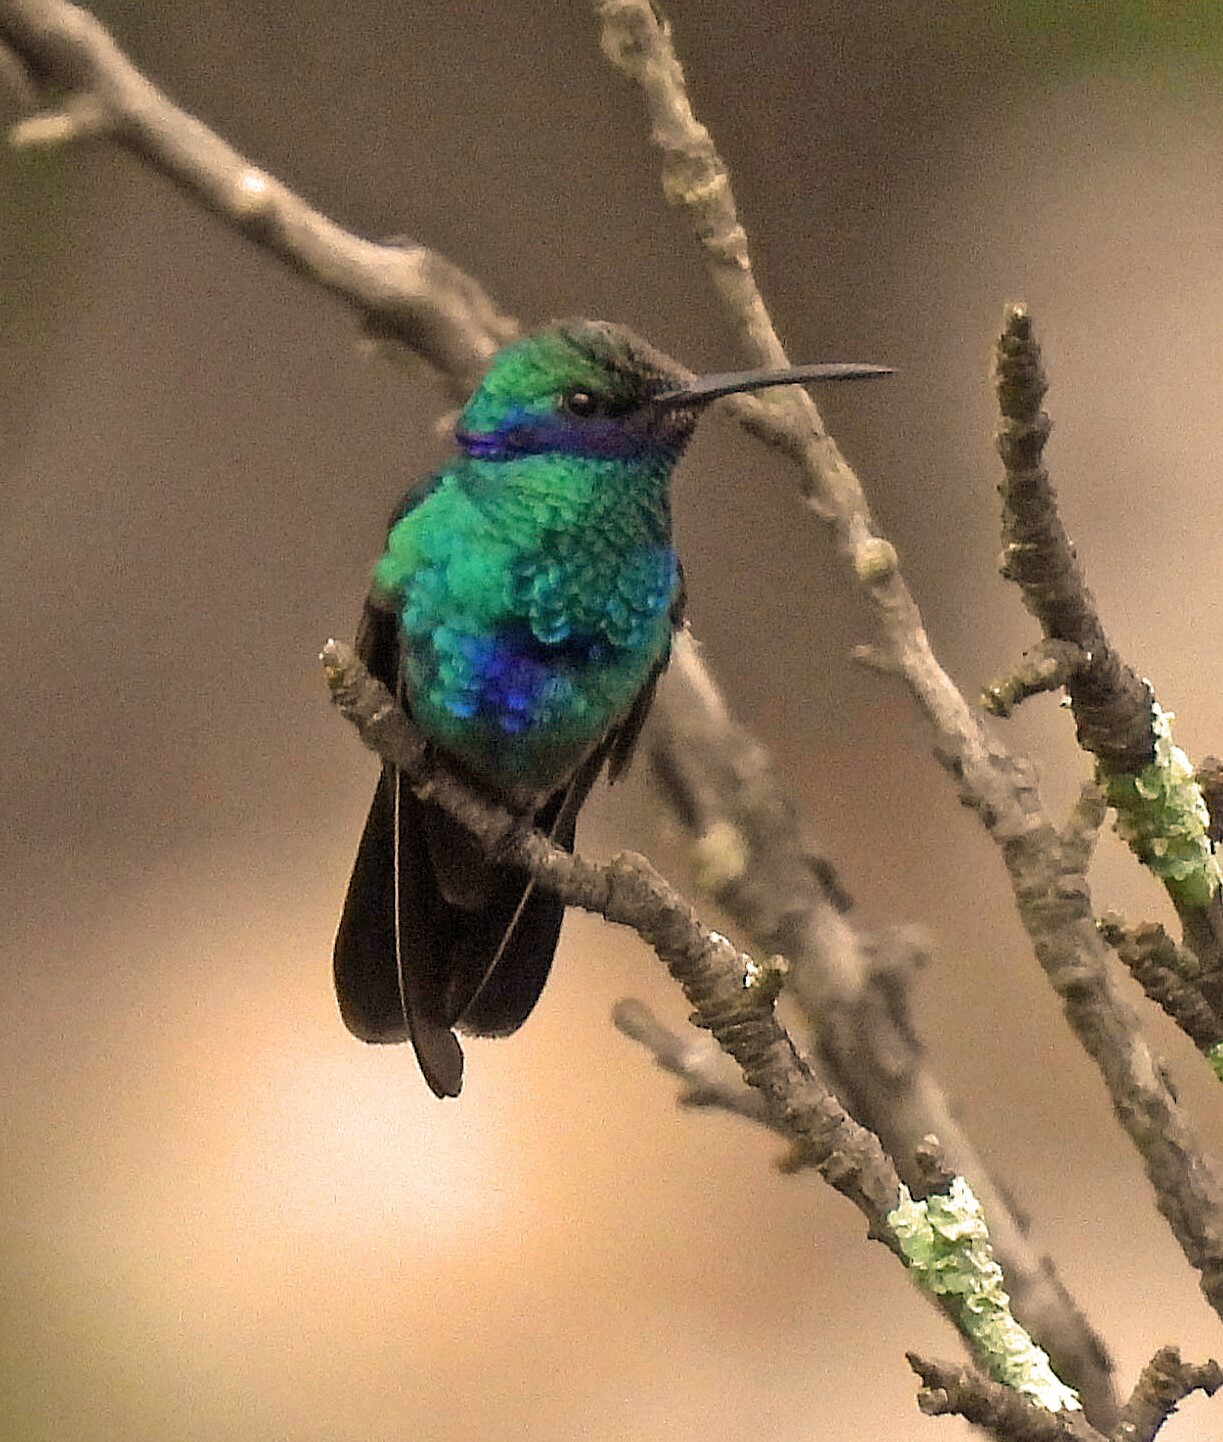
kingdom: Animalia
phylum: Chordata
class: Aves
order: Apodiformes
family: Trochilidae
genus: Colibri
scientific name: Colibri coruscans
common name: Sparkling violetear
